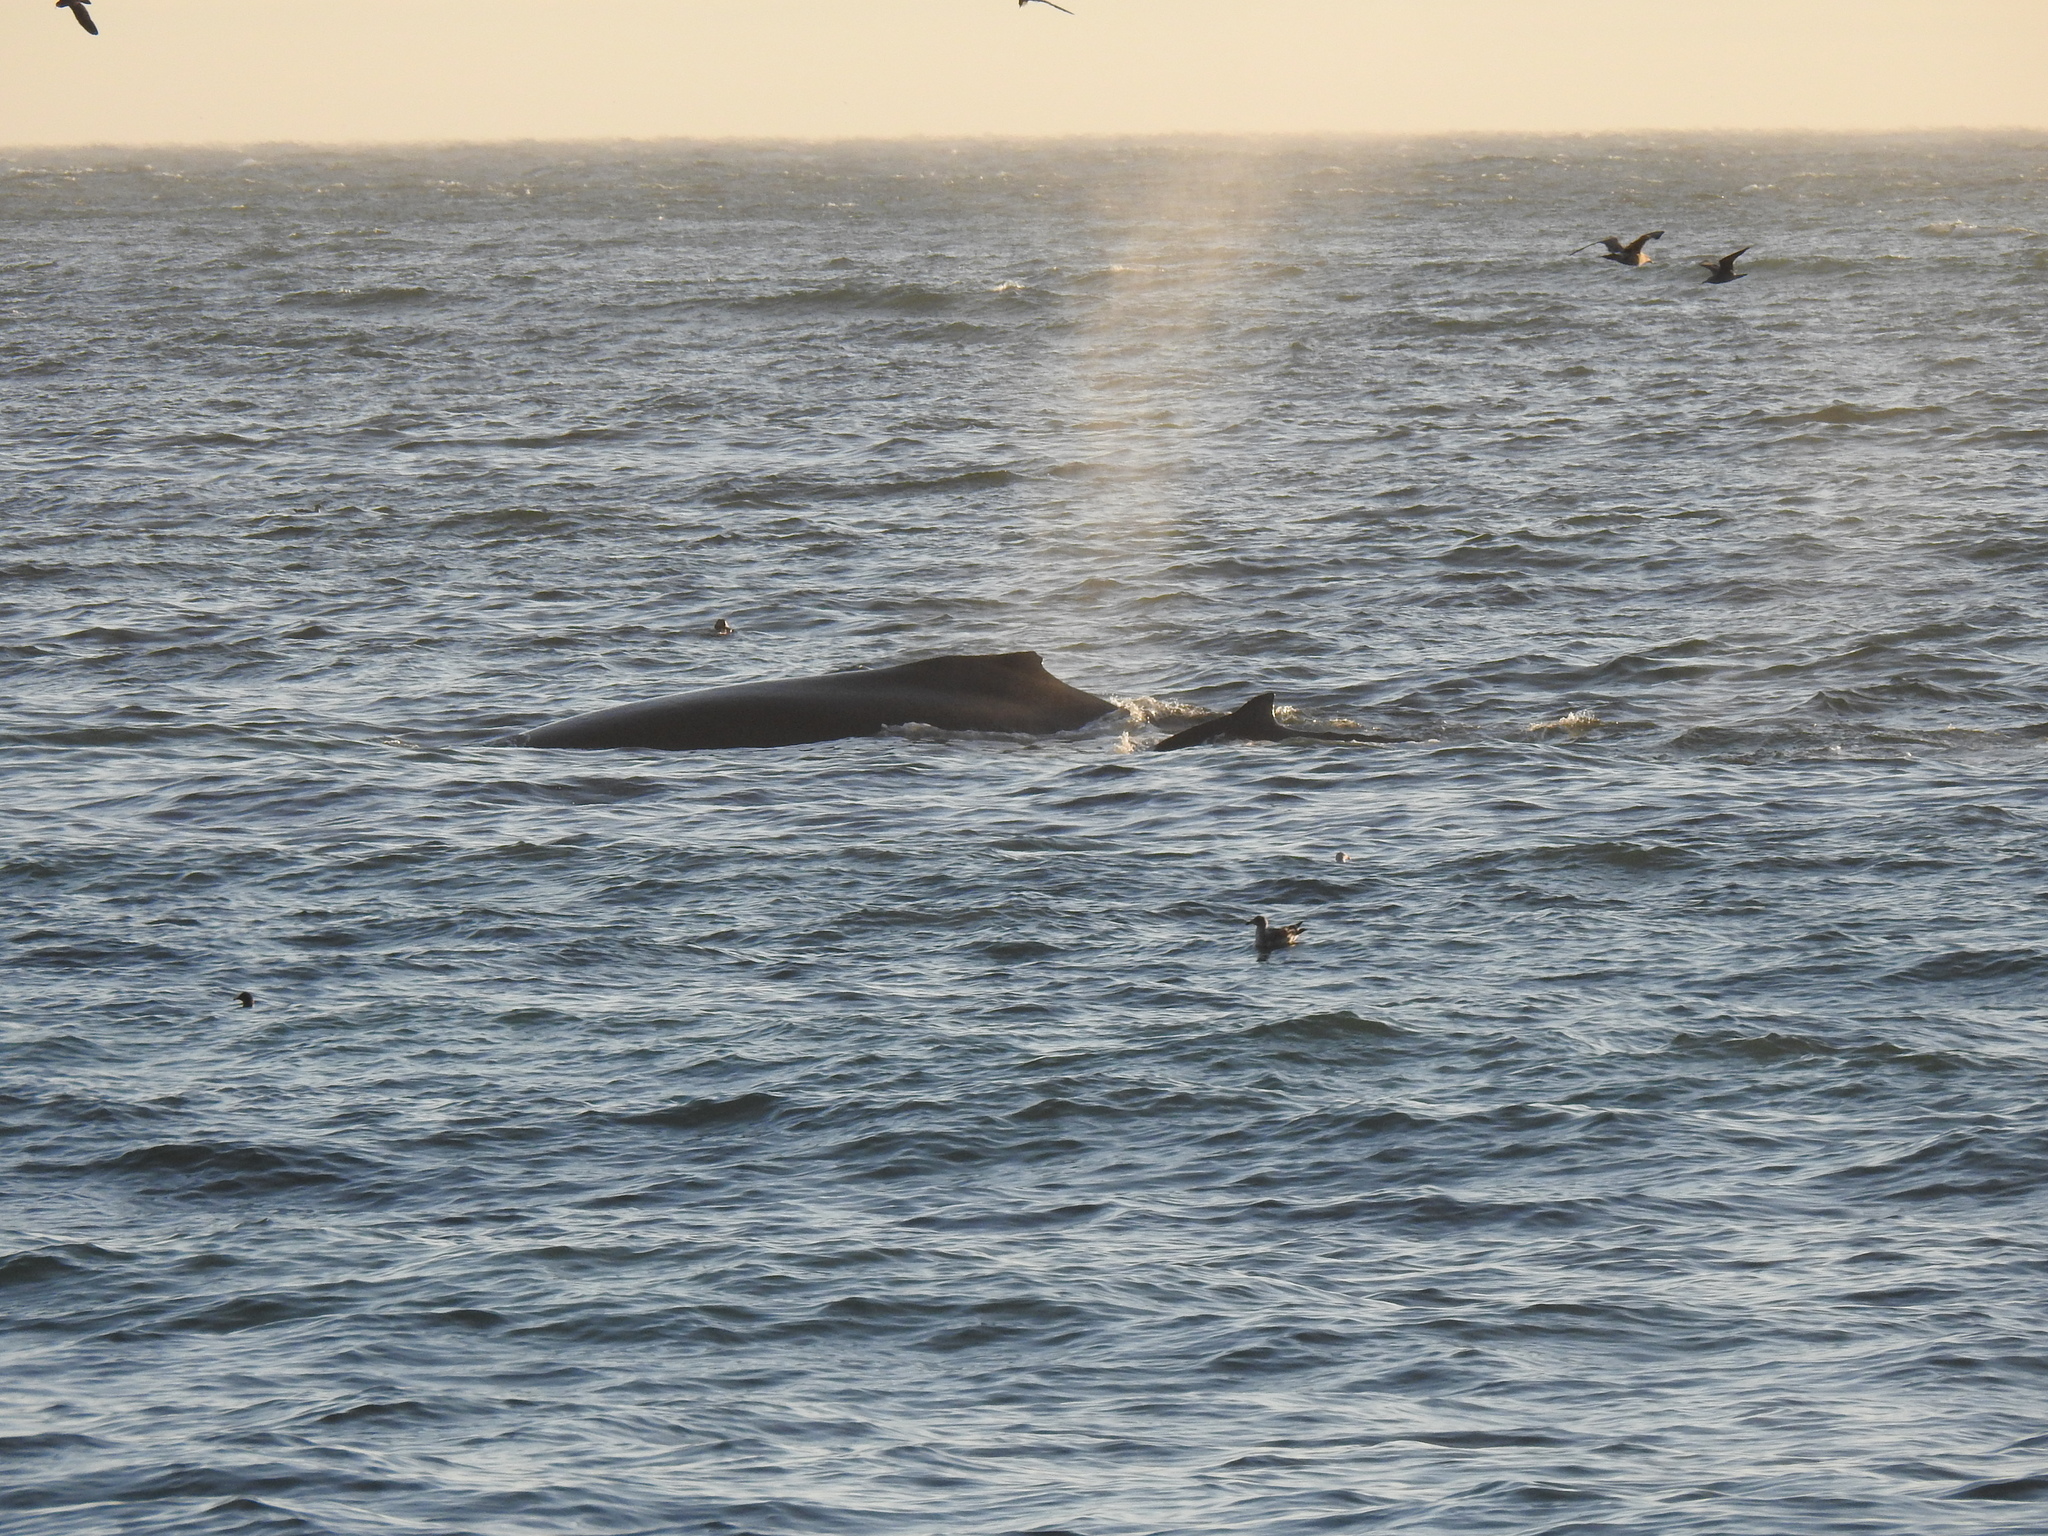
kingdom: Animalia
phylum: Chordata
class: Mammalia
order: Cetacea
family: Balaenopteridae
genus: Megaptera
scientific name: Megaptera novaeangliae
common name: Humpback whale
